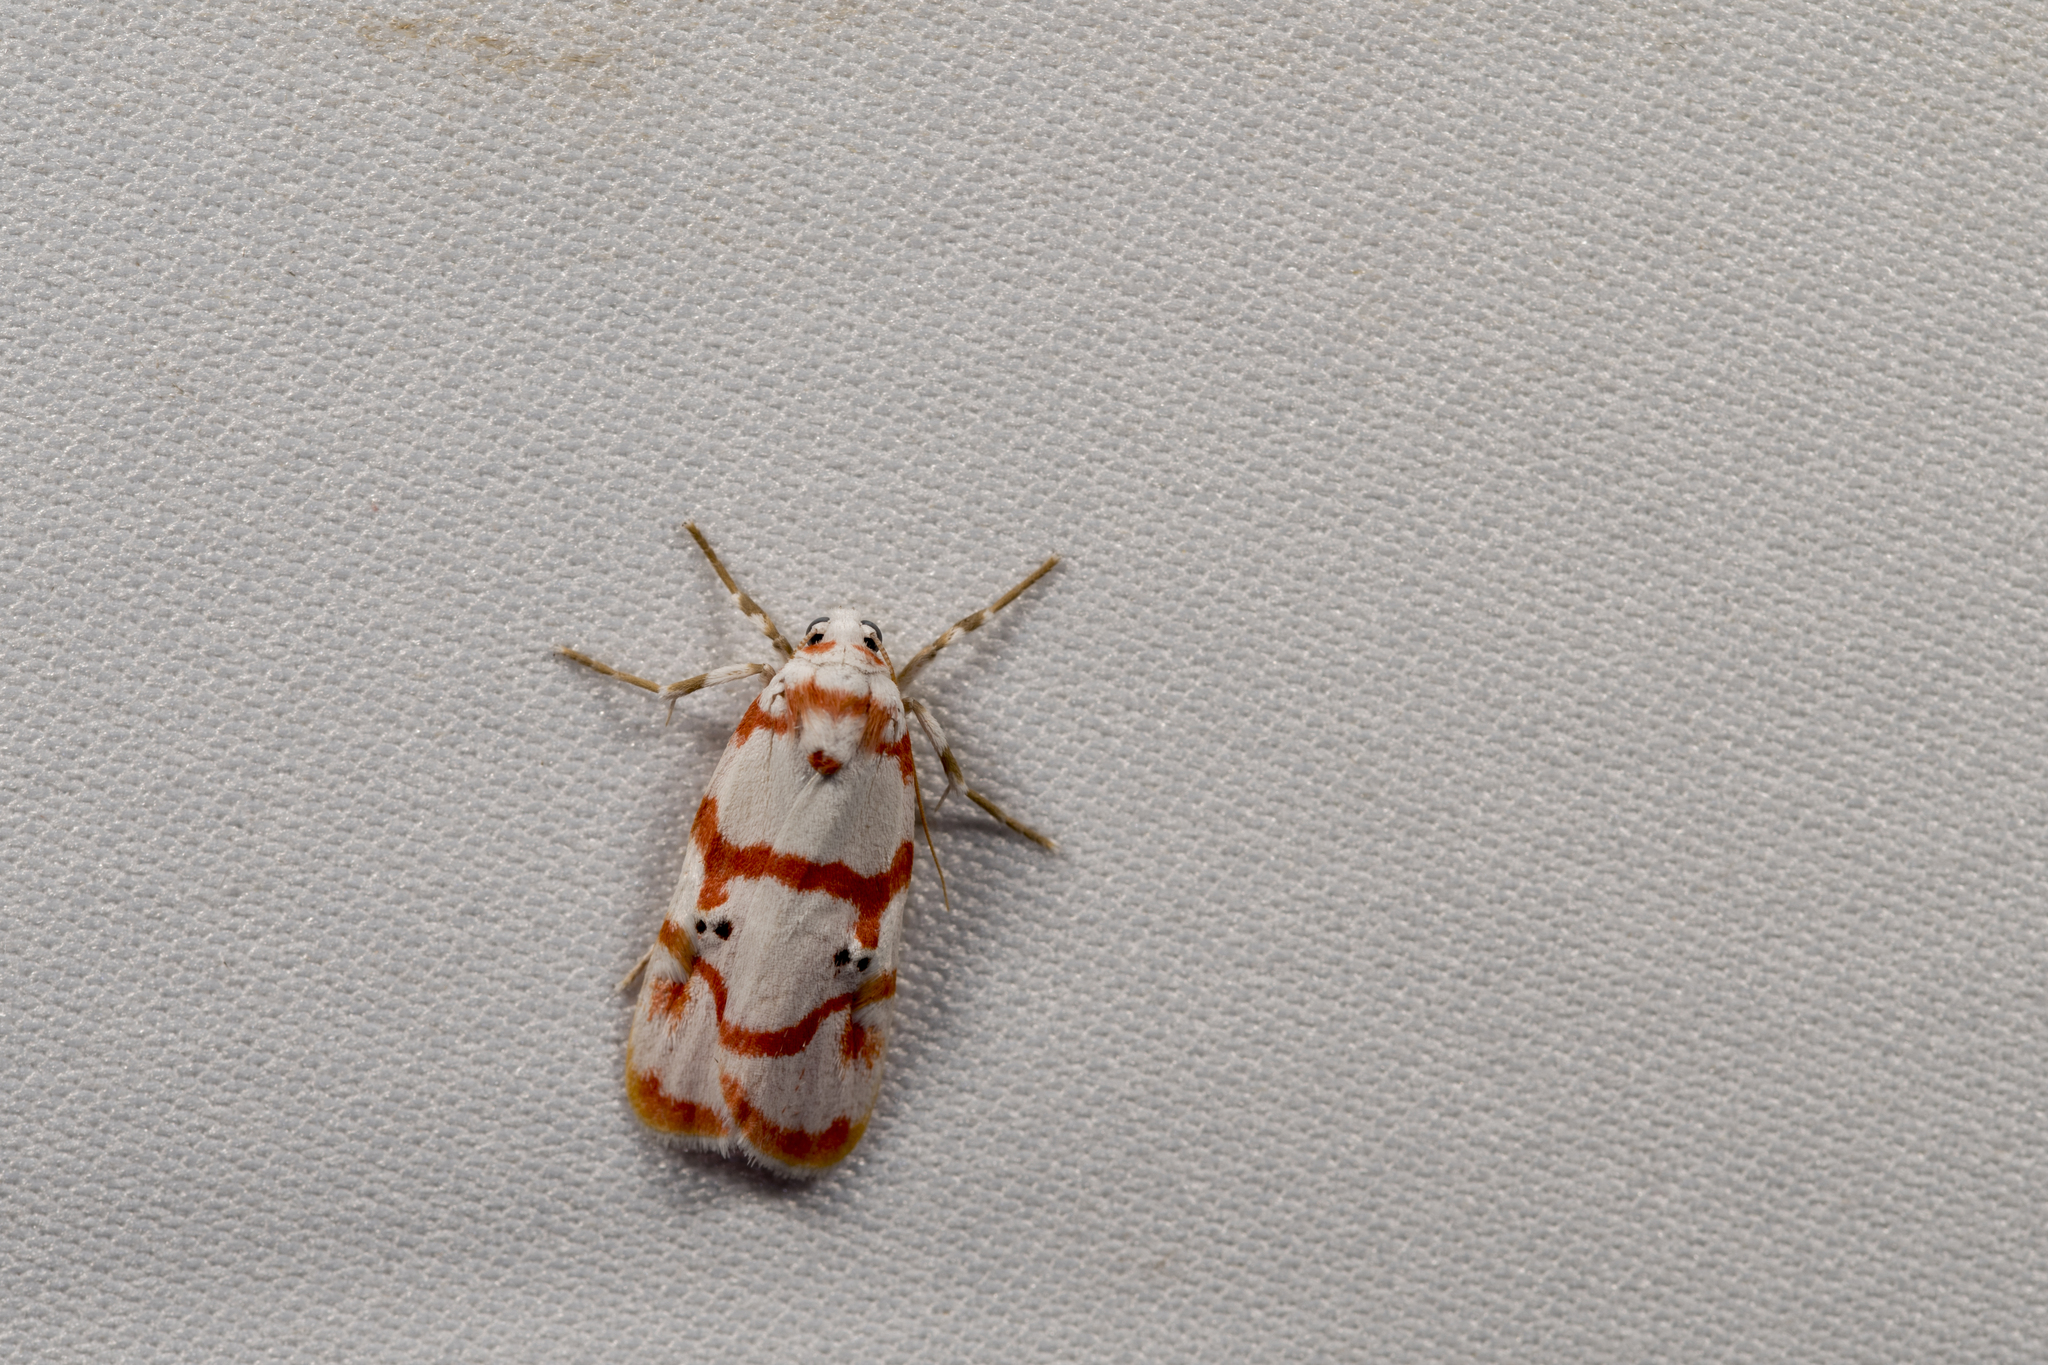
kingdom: Animalia
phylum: Arthropoda
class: Insecta
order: Lepidoptera
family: Erebidae
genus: Cyana
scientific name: Cyana hamata
